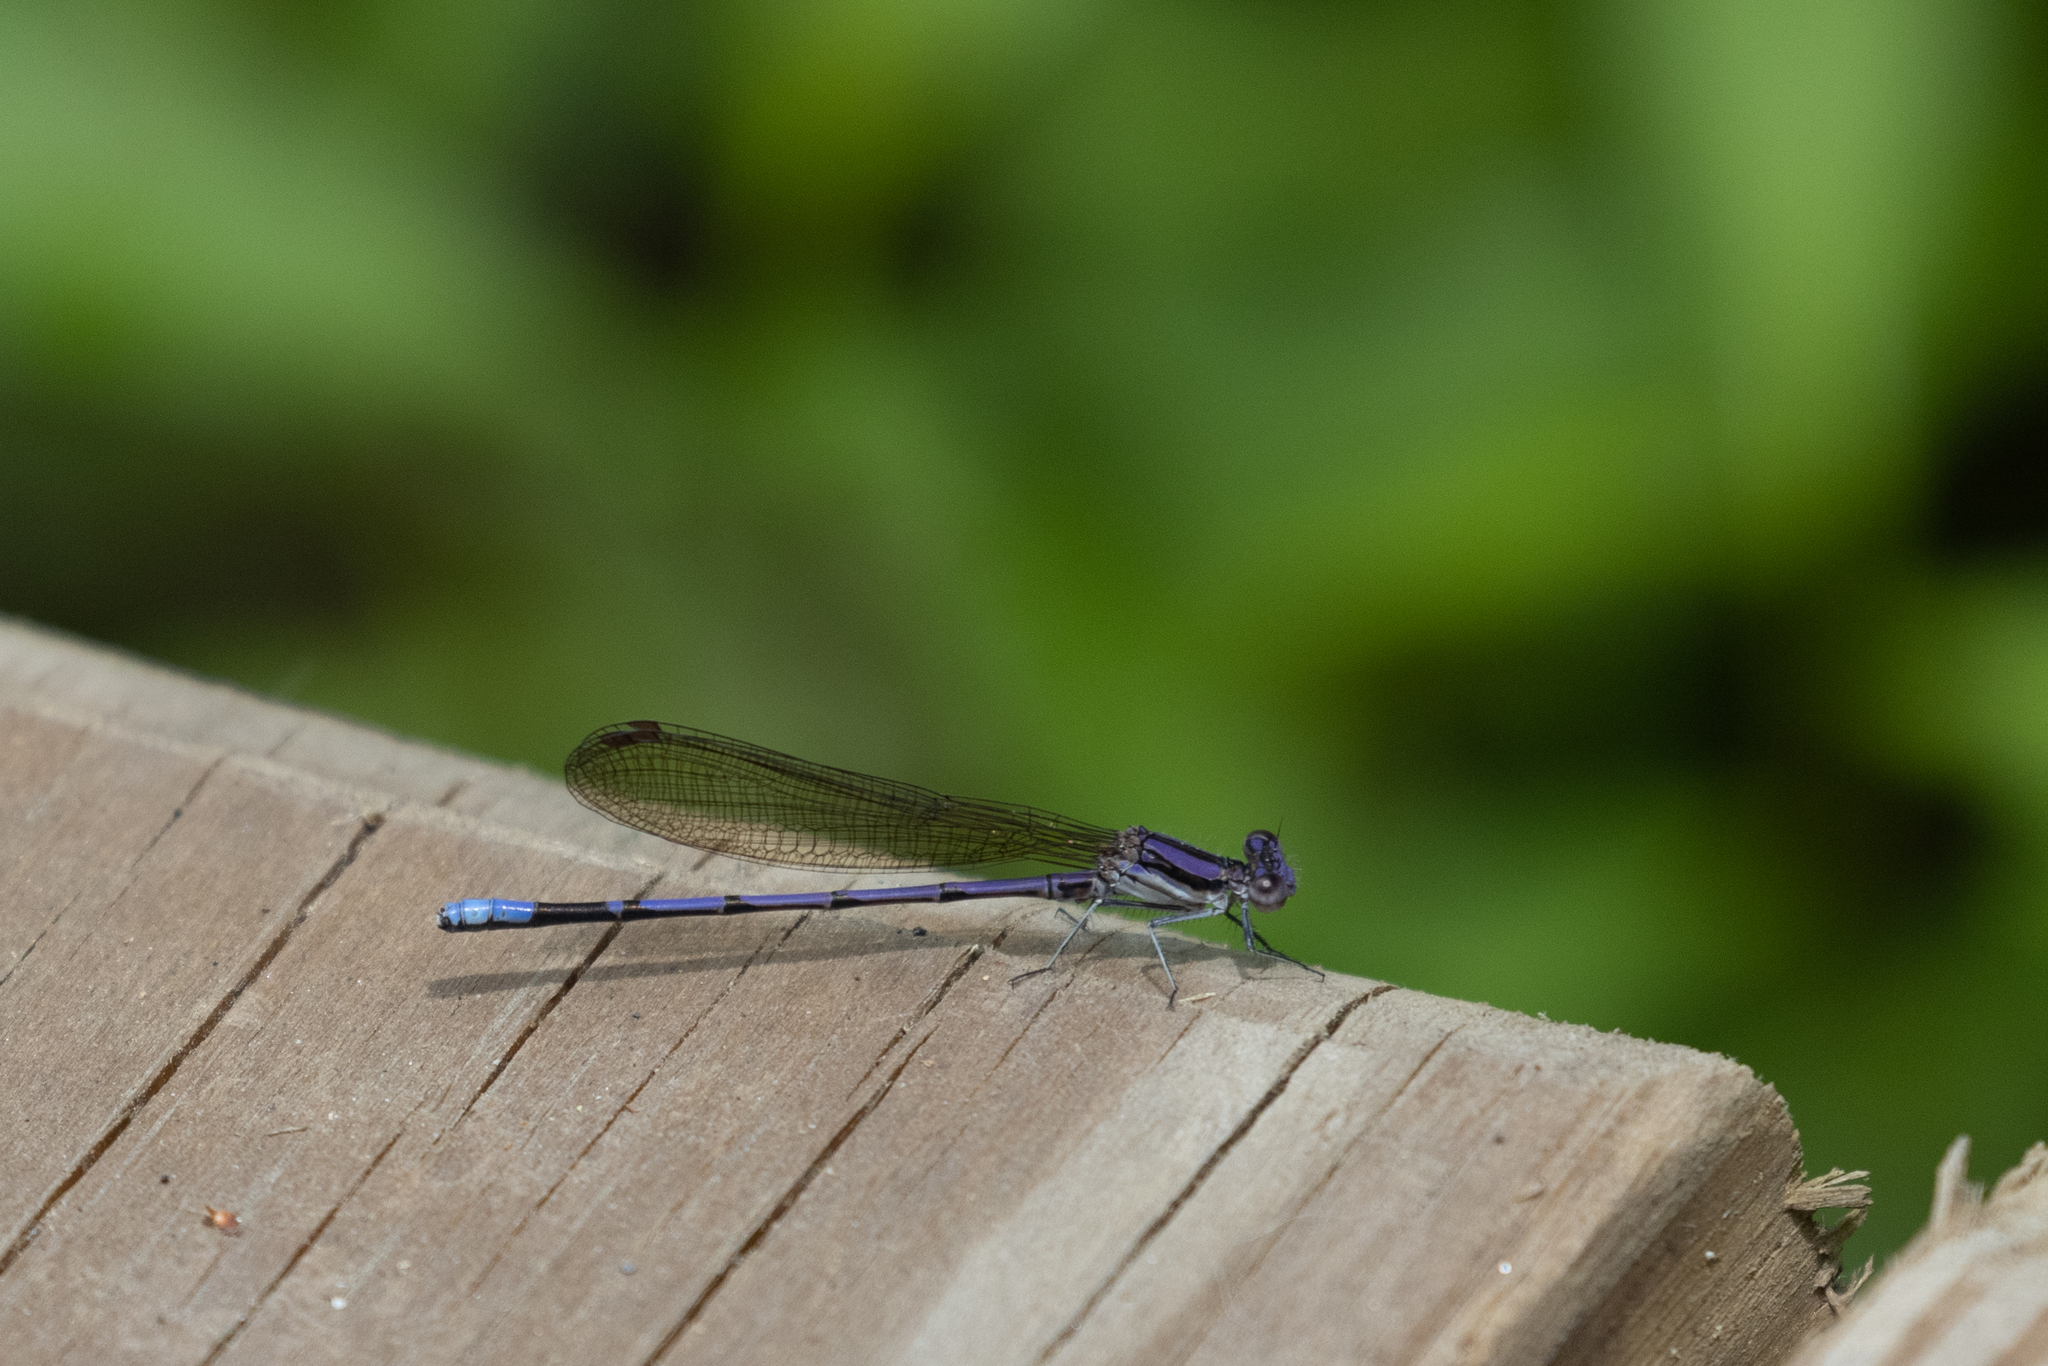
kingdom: Animalia
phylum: Arthropoda
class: Insecta
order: Odonata
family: Coenagrionidae
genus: Argia
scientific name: Argia fumipennis
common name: Variable dancer
